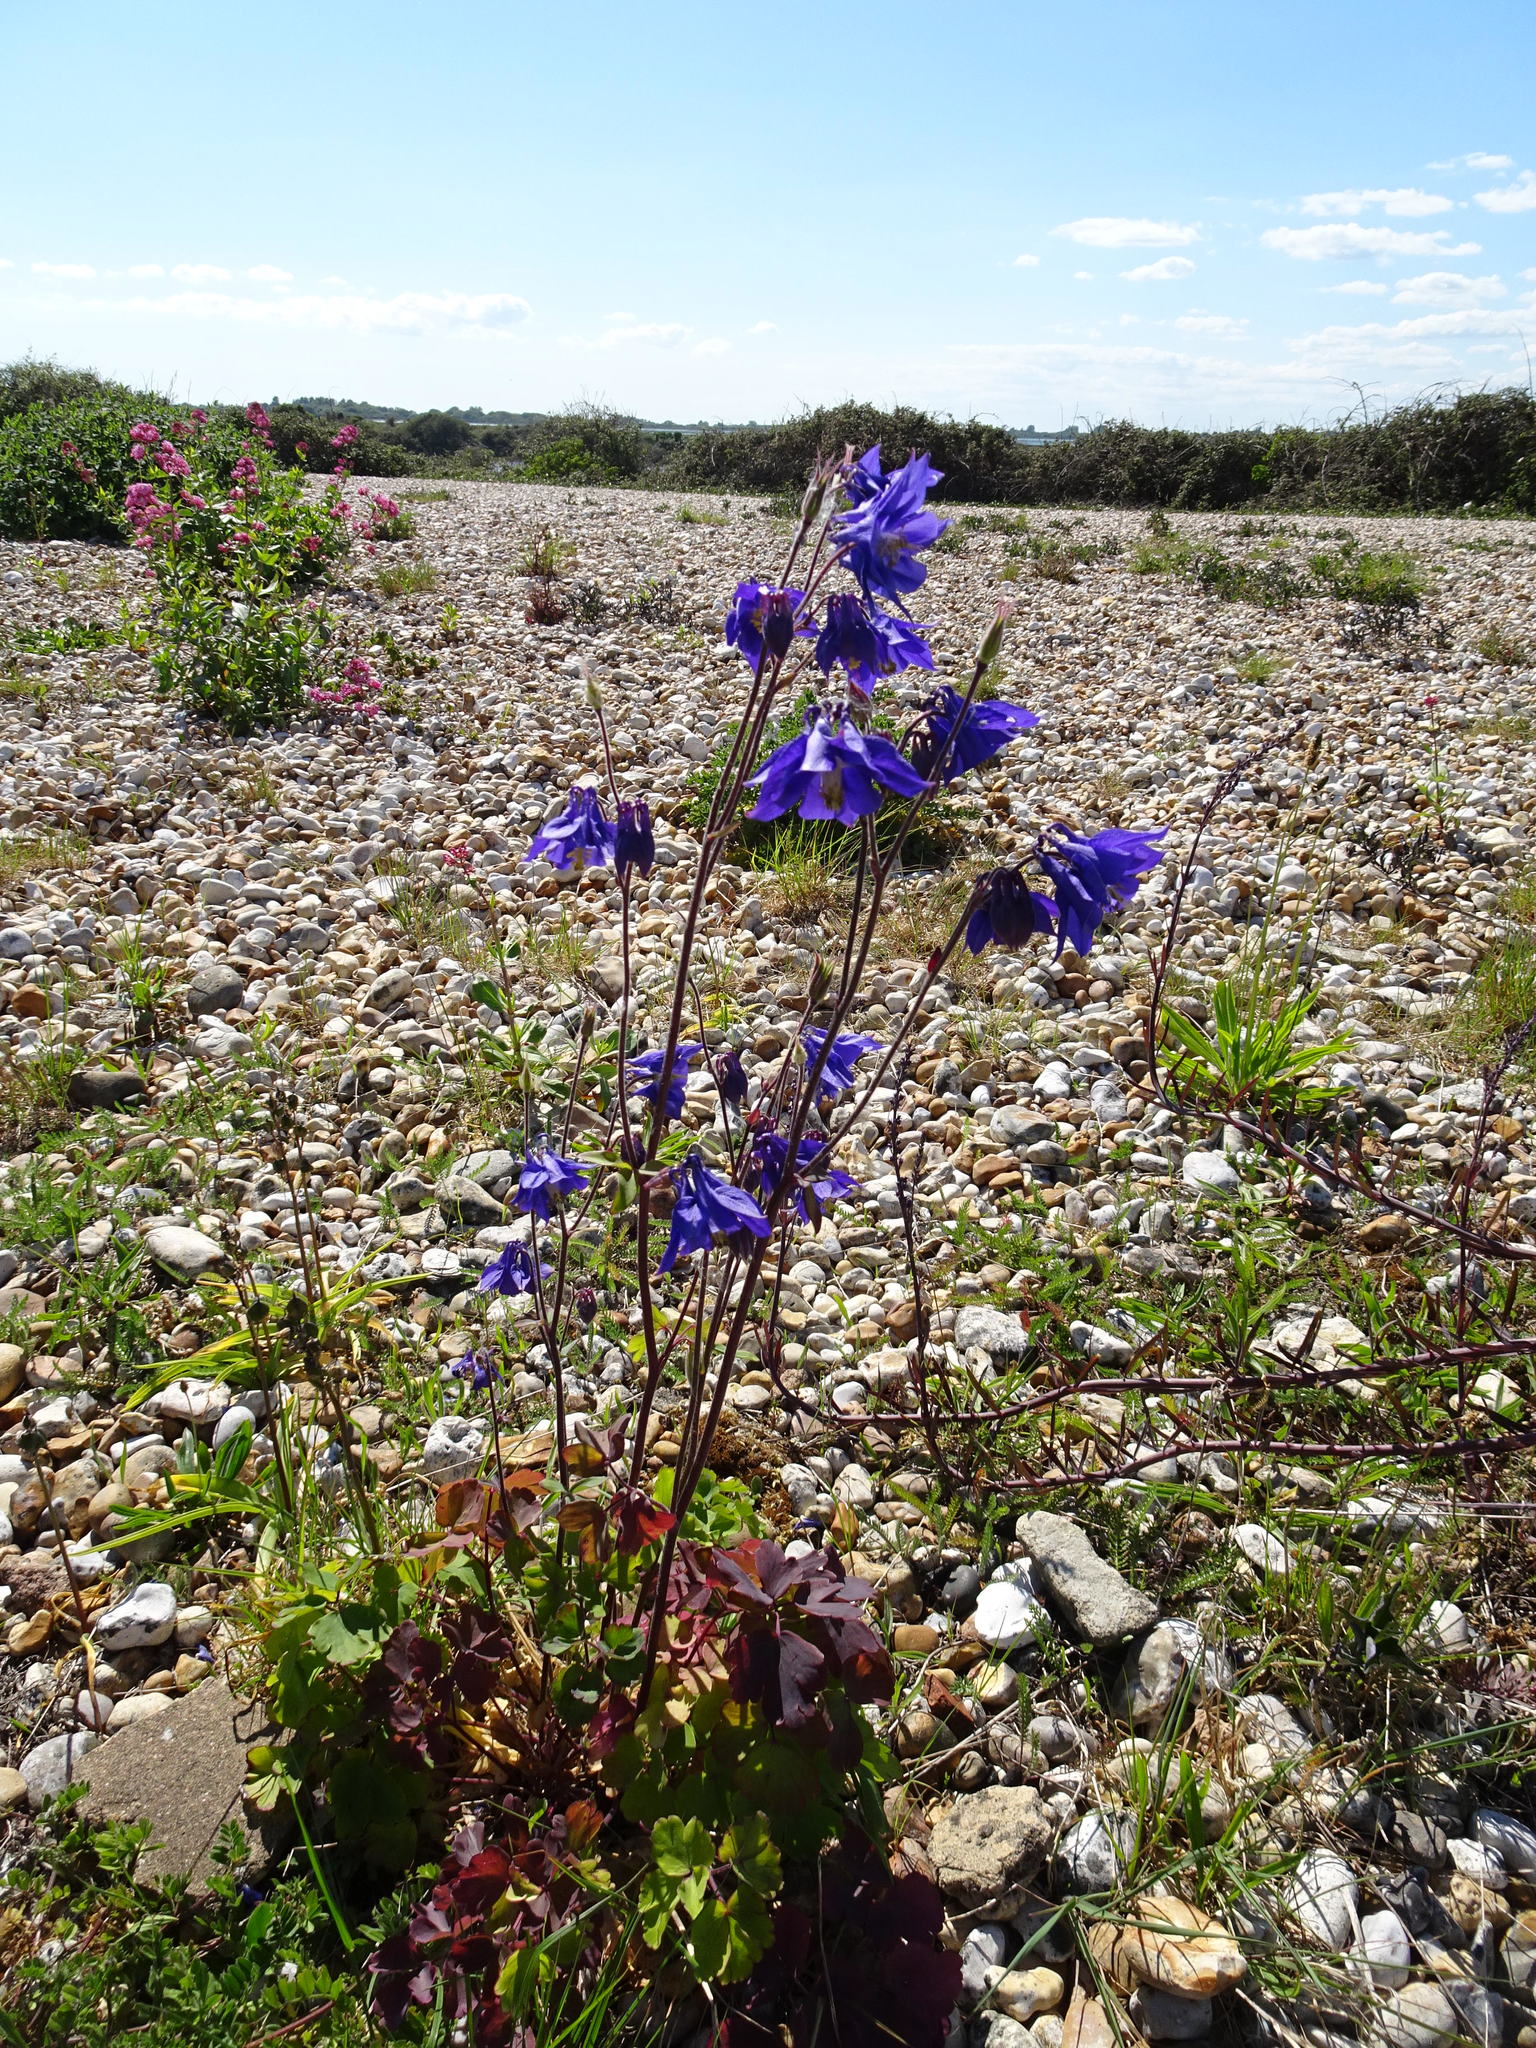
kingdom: Plantae
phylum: Tracheophyta
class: Magnoliopsida
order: Ranunculales
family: Ranunculaceae
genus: Aquilegia
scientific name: Aquilegia vulgaris
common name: Columbine
